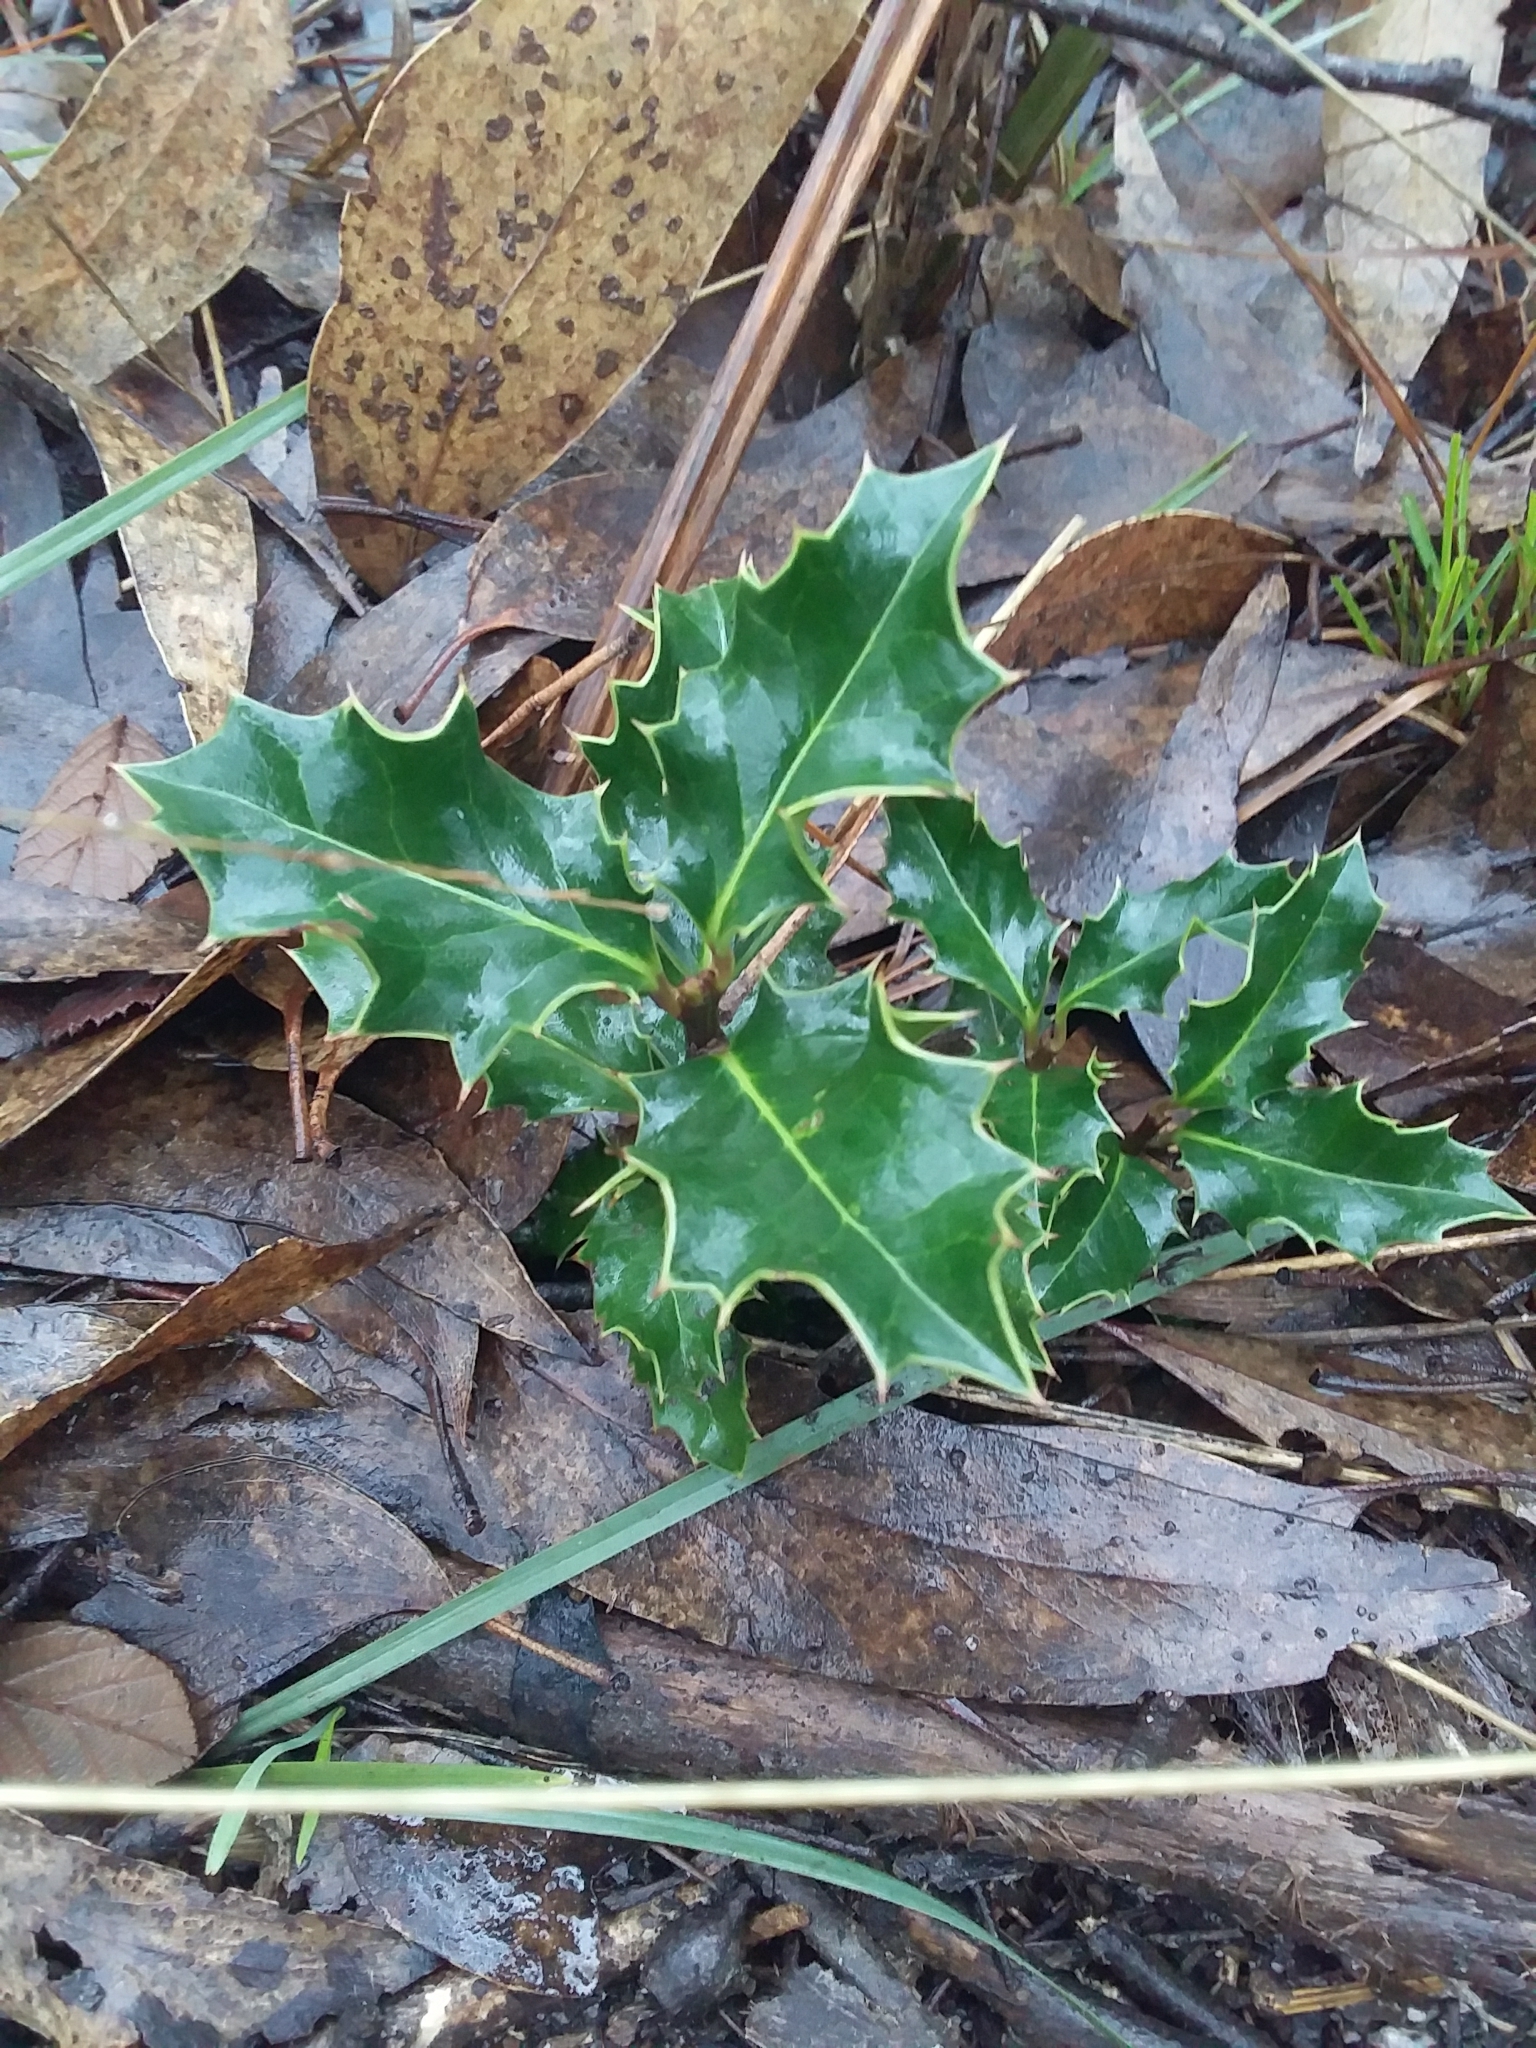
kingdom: Plantae
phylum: Tracheophyta
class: Magnoliopsida
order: Aquifoliales
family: Aquifoliaceae
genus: Ilex
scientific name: Ilex aquifolium
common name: English holly
